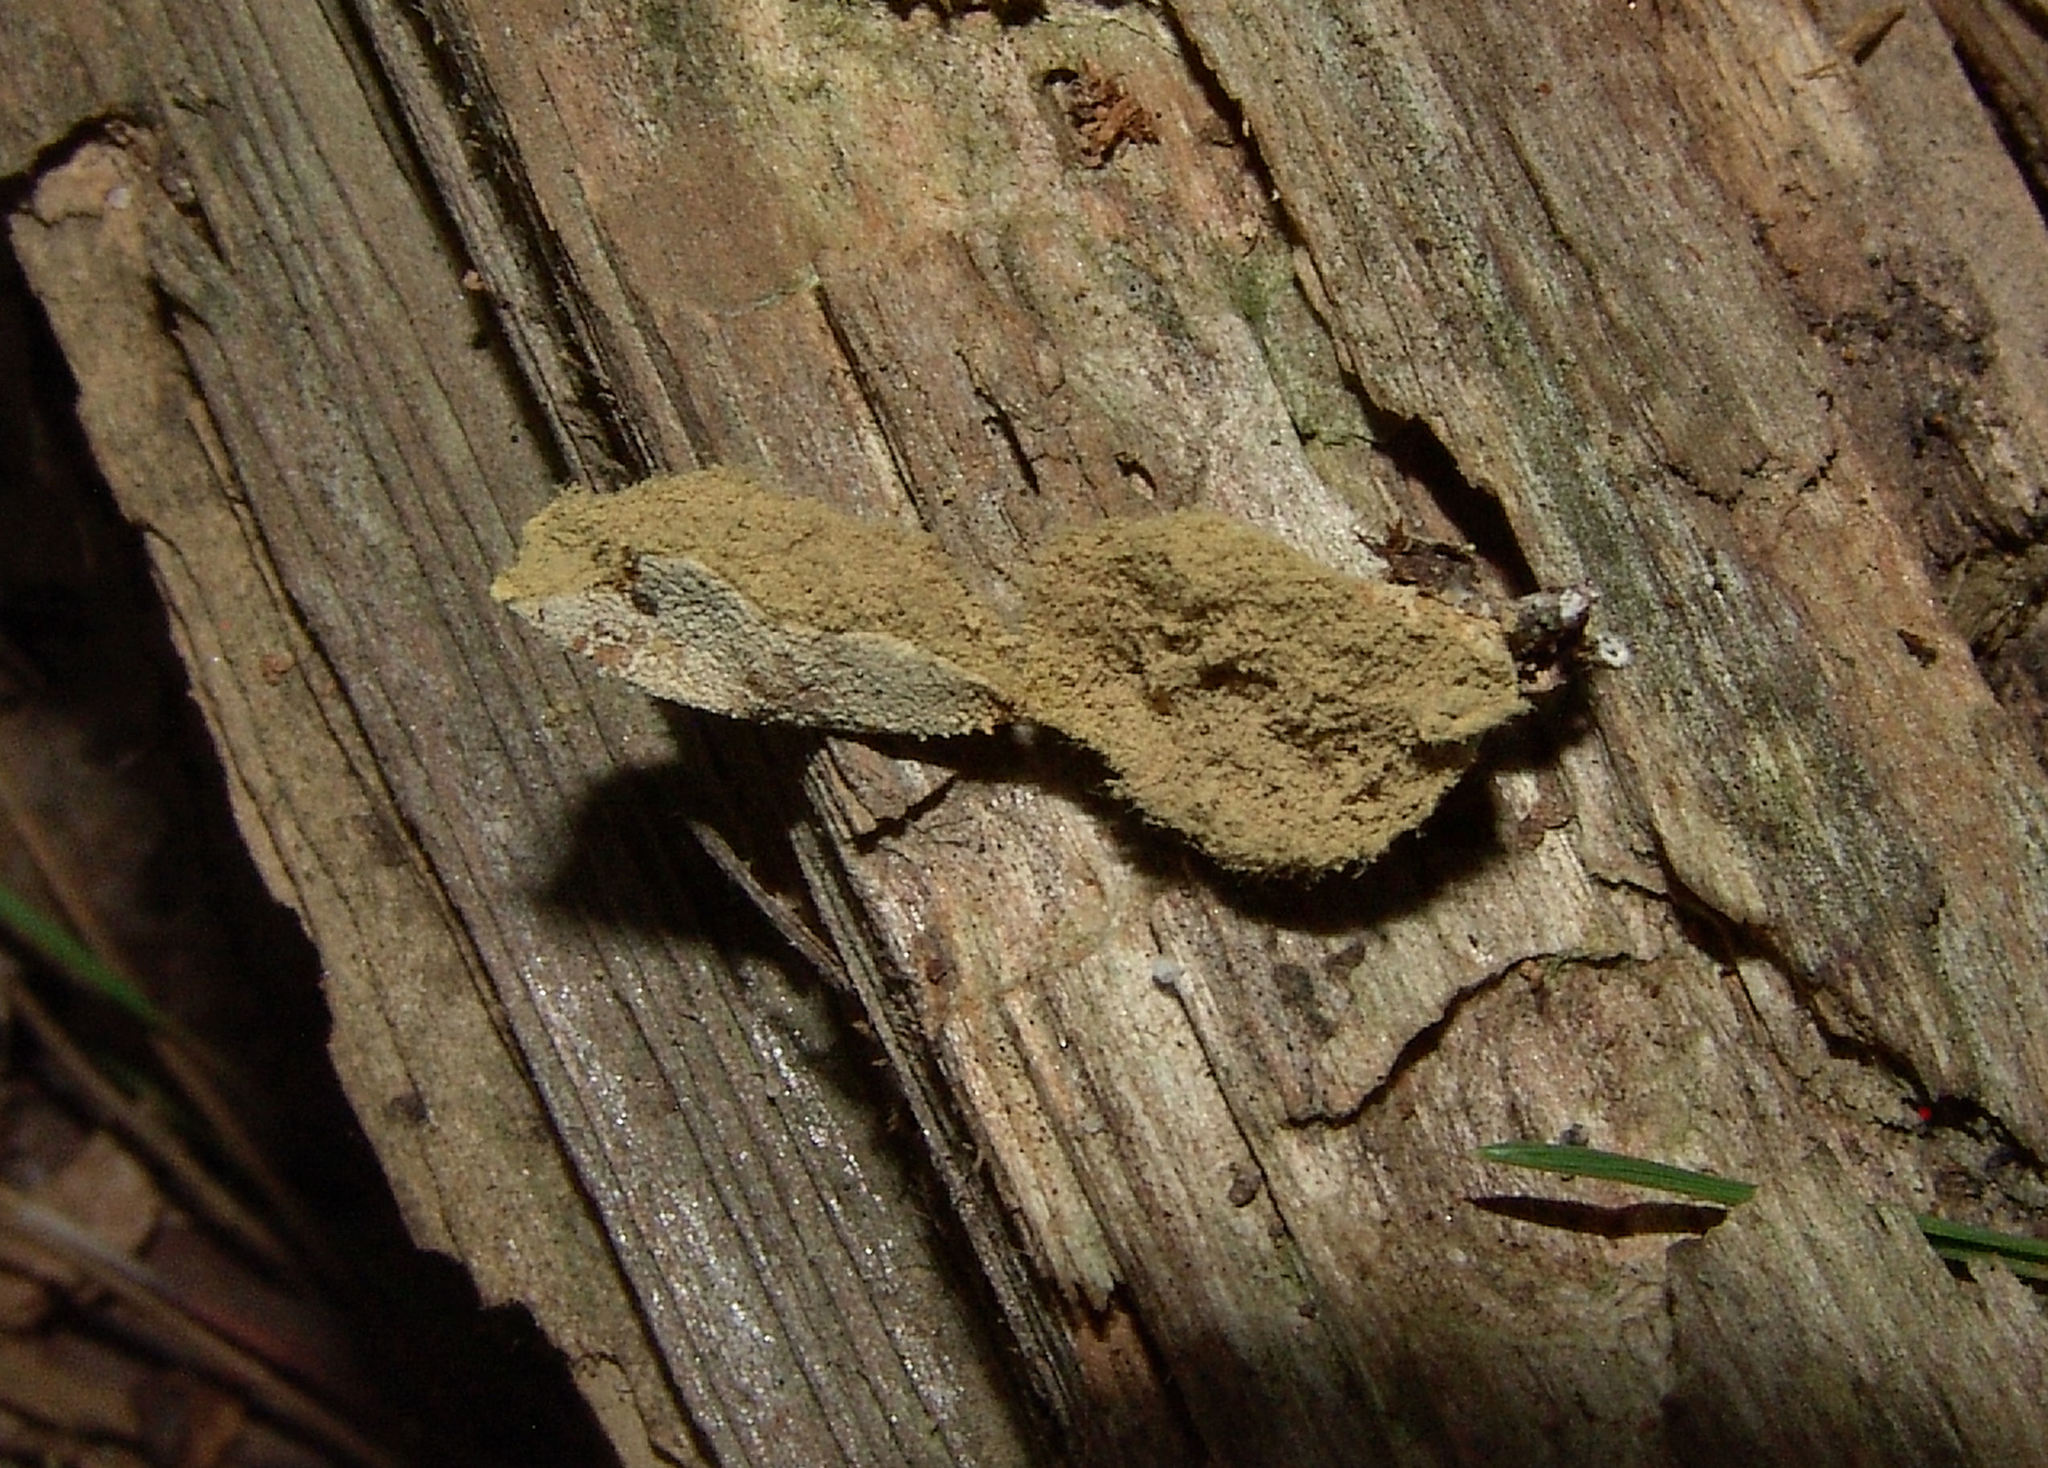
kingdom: Fungi
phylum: Basidiomycota
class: Agaricomycetes
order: Agaricales
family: Lycoperdaceae
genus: Apioperdon
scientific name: Apioperdon pyriforme
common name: Pear-shaped puffball
